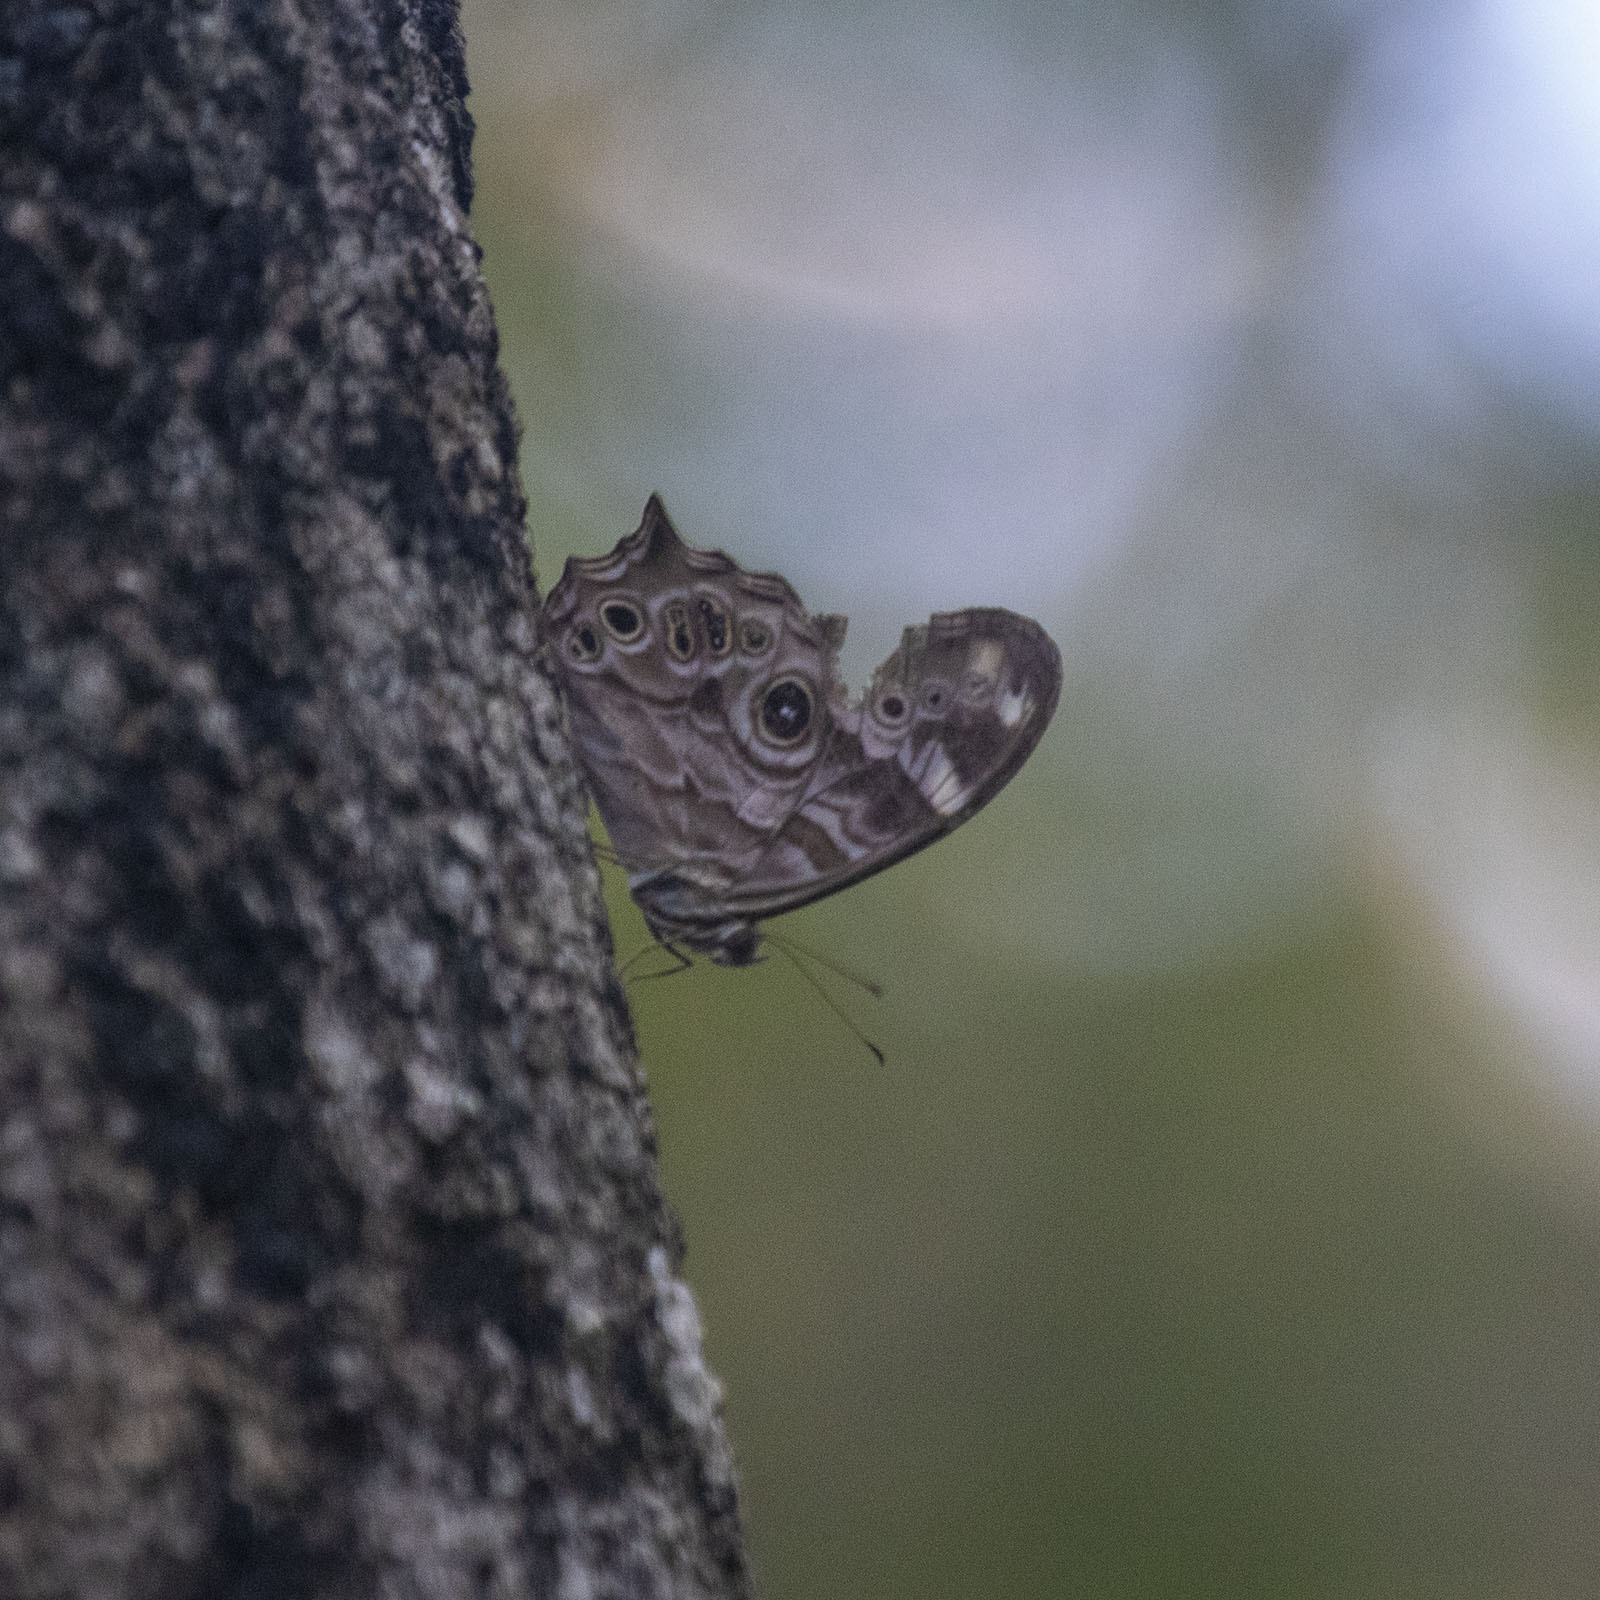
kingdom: Animalia
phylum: Arthropoda
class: Insecta
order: Lepidoptera
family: Nymphalidae
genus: Lethe
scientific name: Lethe rohria
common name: Common treebrown
